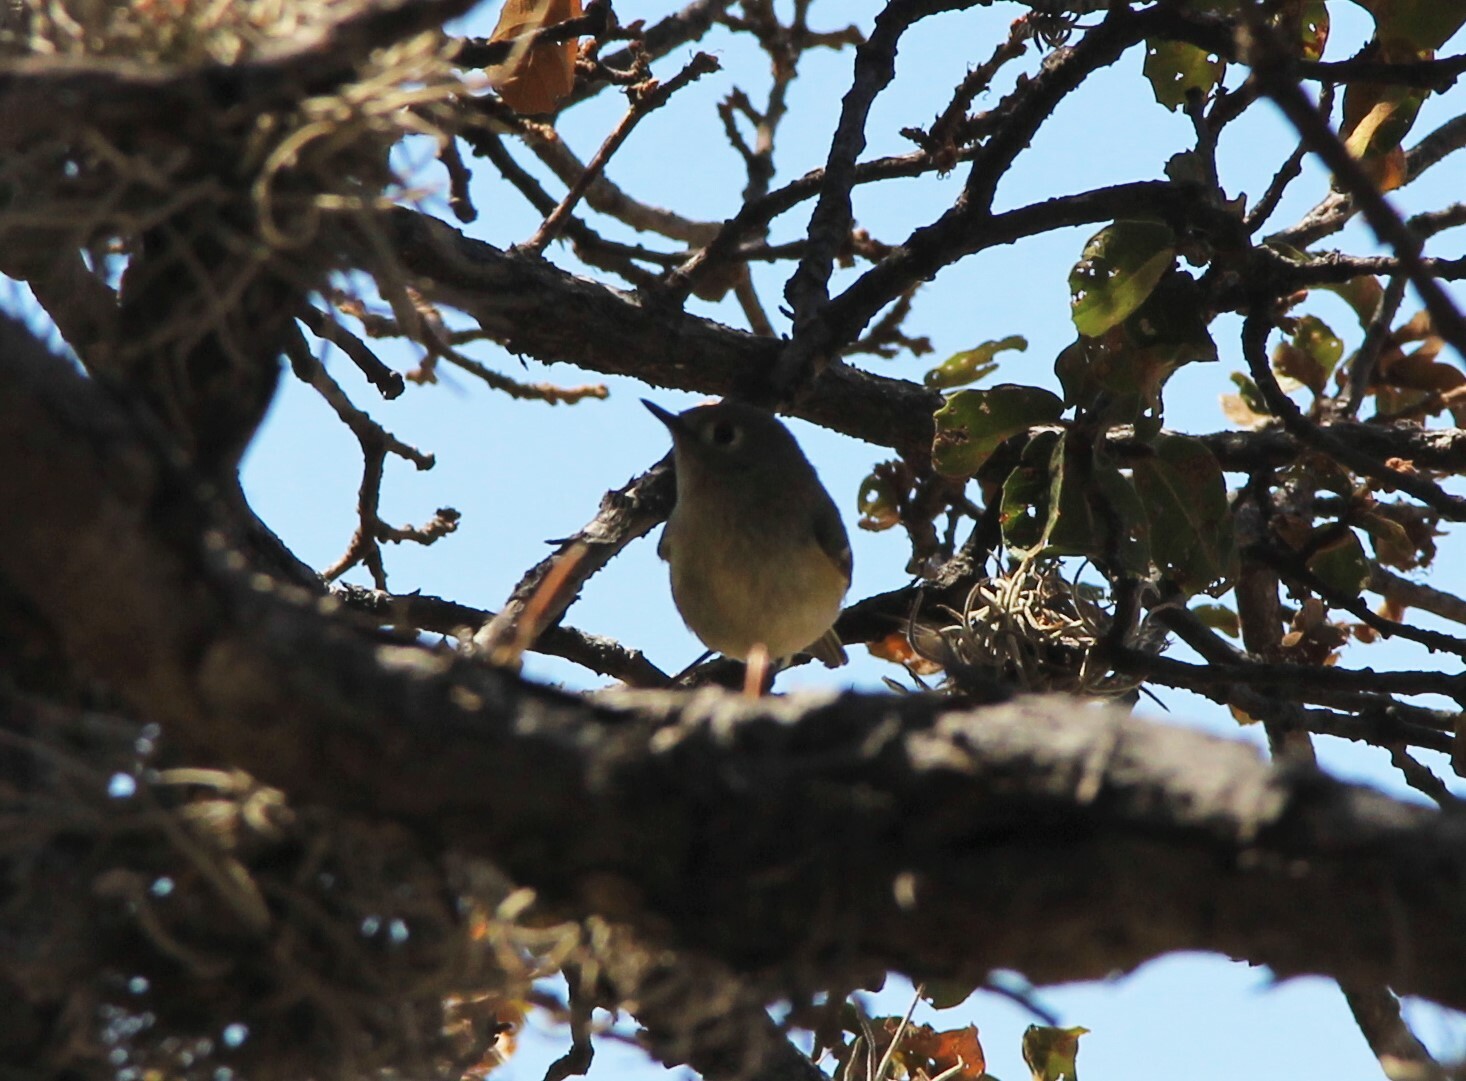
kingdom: Animalia
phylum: Chordata
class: Aves
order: Passeriformes
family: Regulidae
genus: Regulus
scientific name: Regulus calendula
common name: Ruby-crowned kinglet
